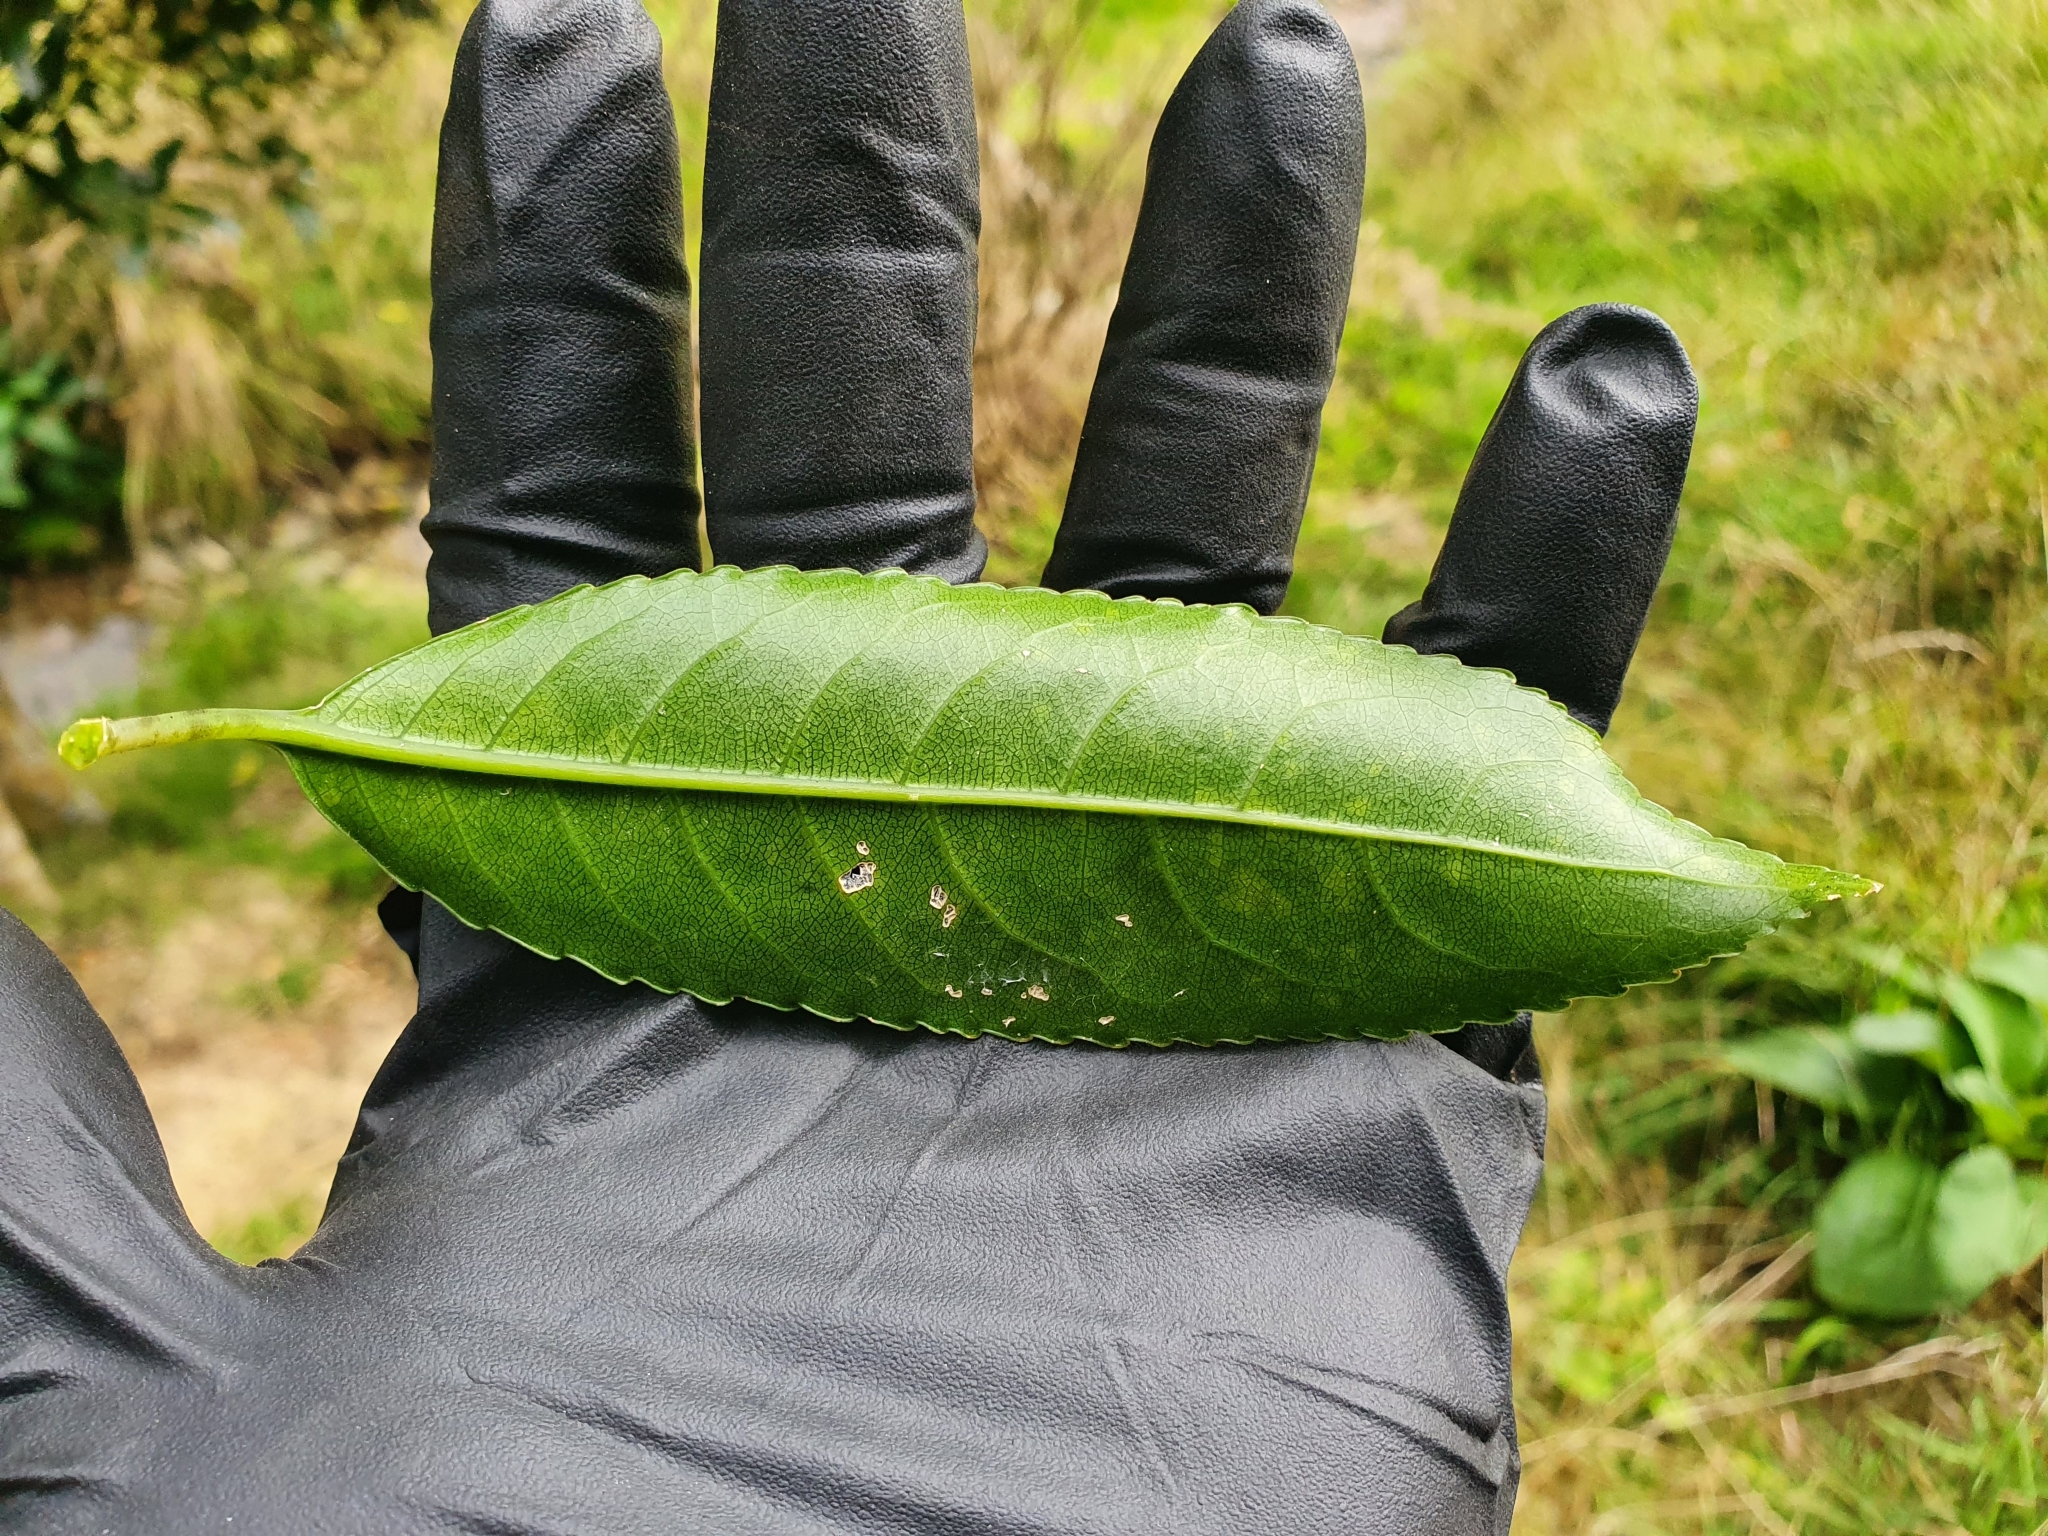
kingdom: Plantae
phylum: Tracheophyta
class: Magnoliopsida
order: Malpighiales
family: Violaceae
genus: Melicytus
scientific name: Melicytus ramiflorus
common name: Mahoe
